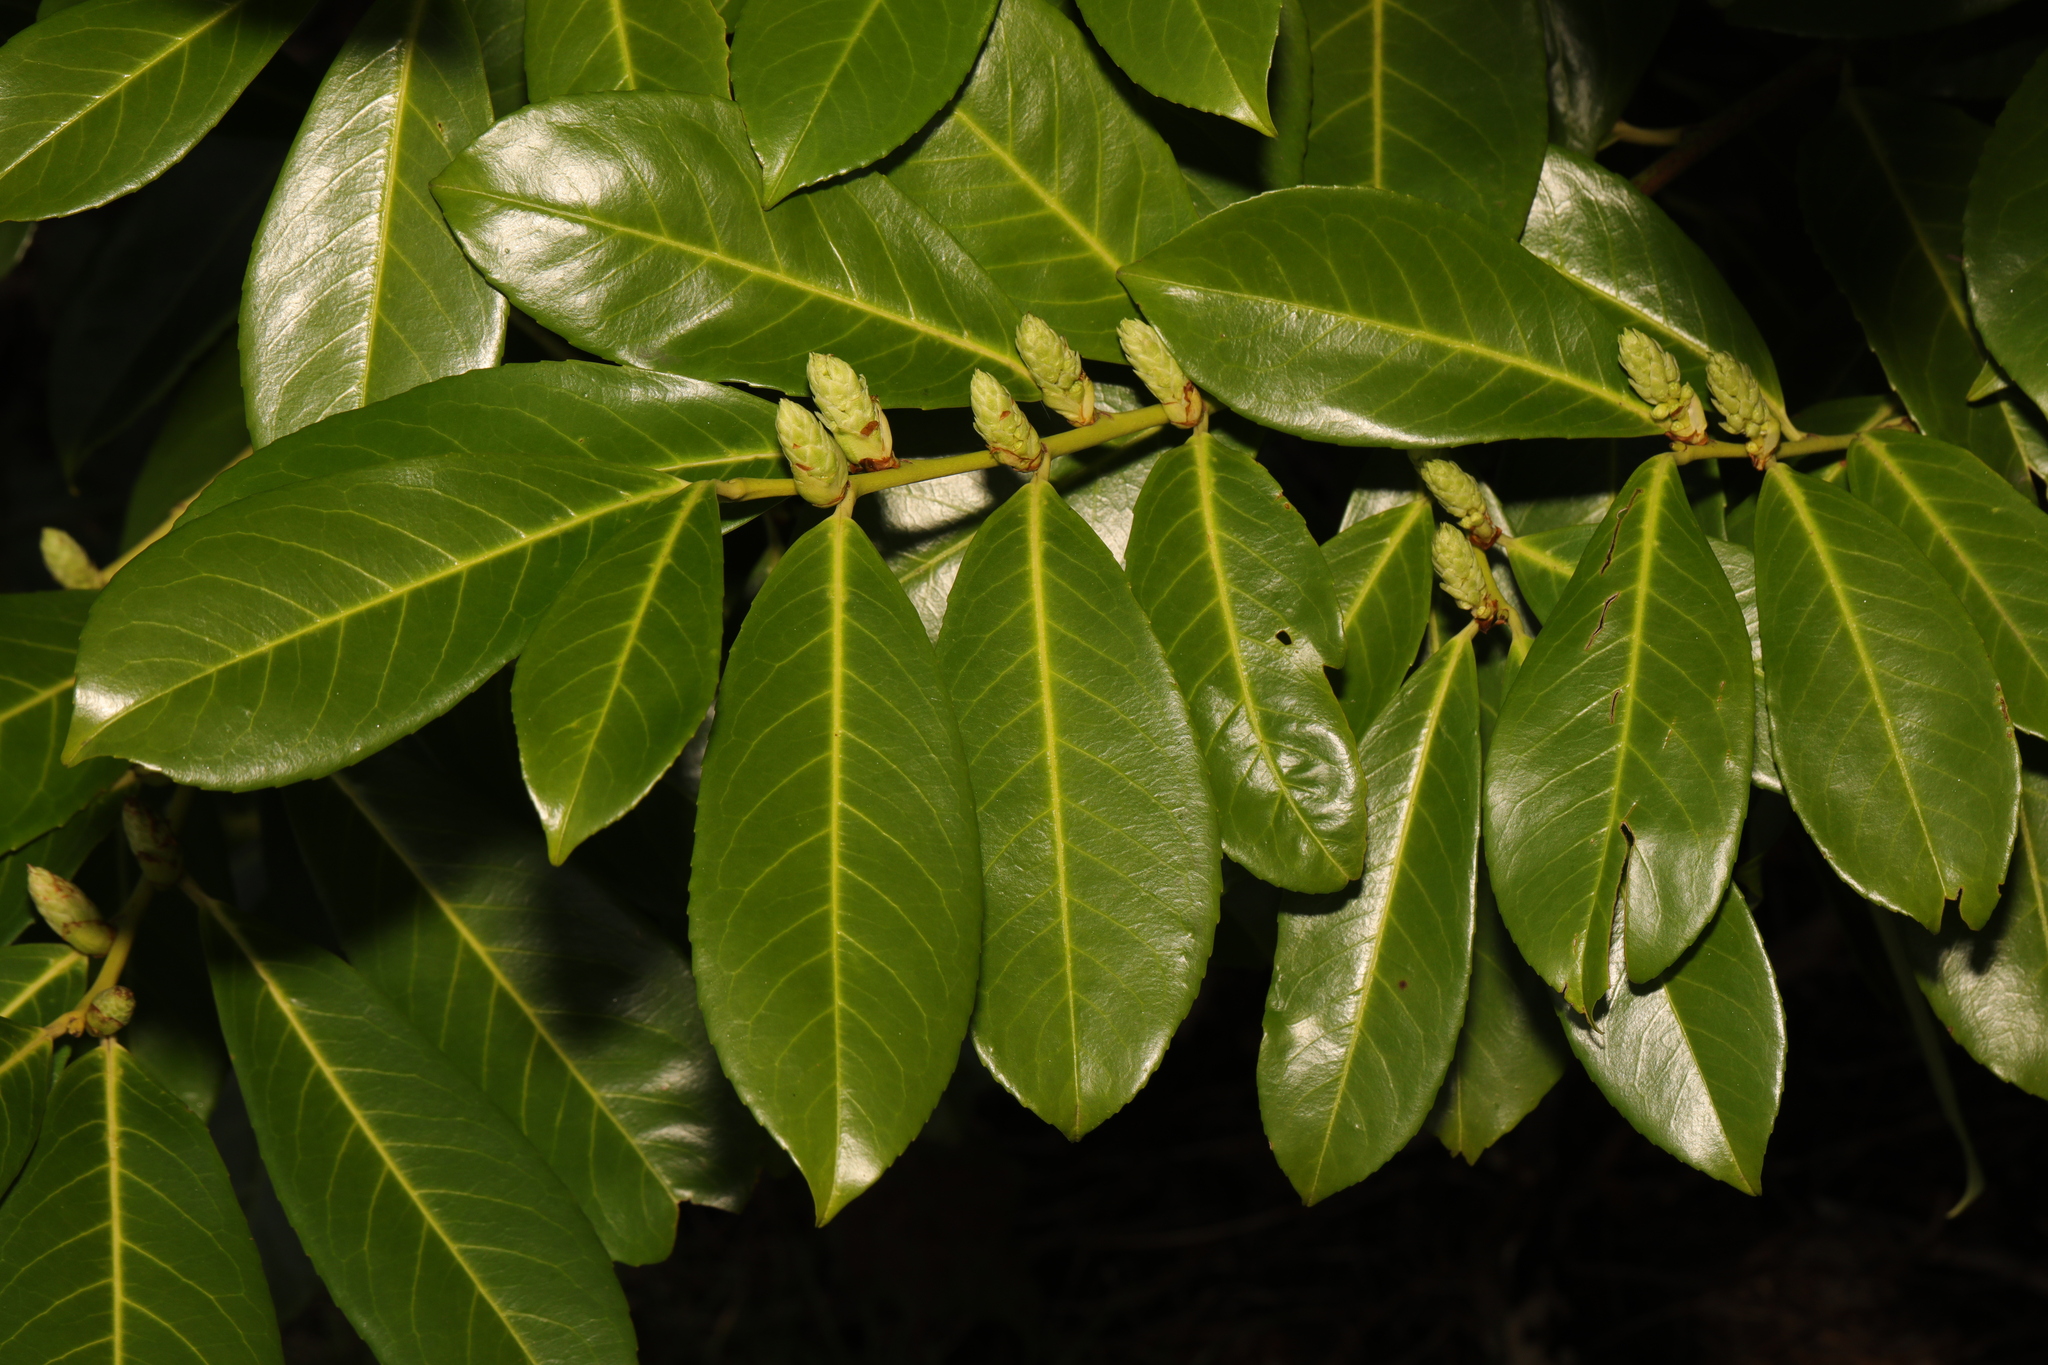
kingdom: Plantae
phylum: Tracheophyta
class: Magnoliopsida
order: Rosales
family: Rosaceae
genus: Prunus
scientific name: Prunus laurocerasus
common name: Cherry laurel
